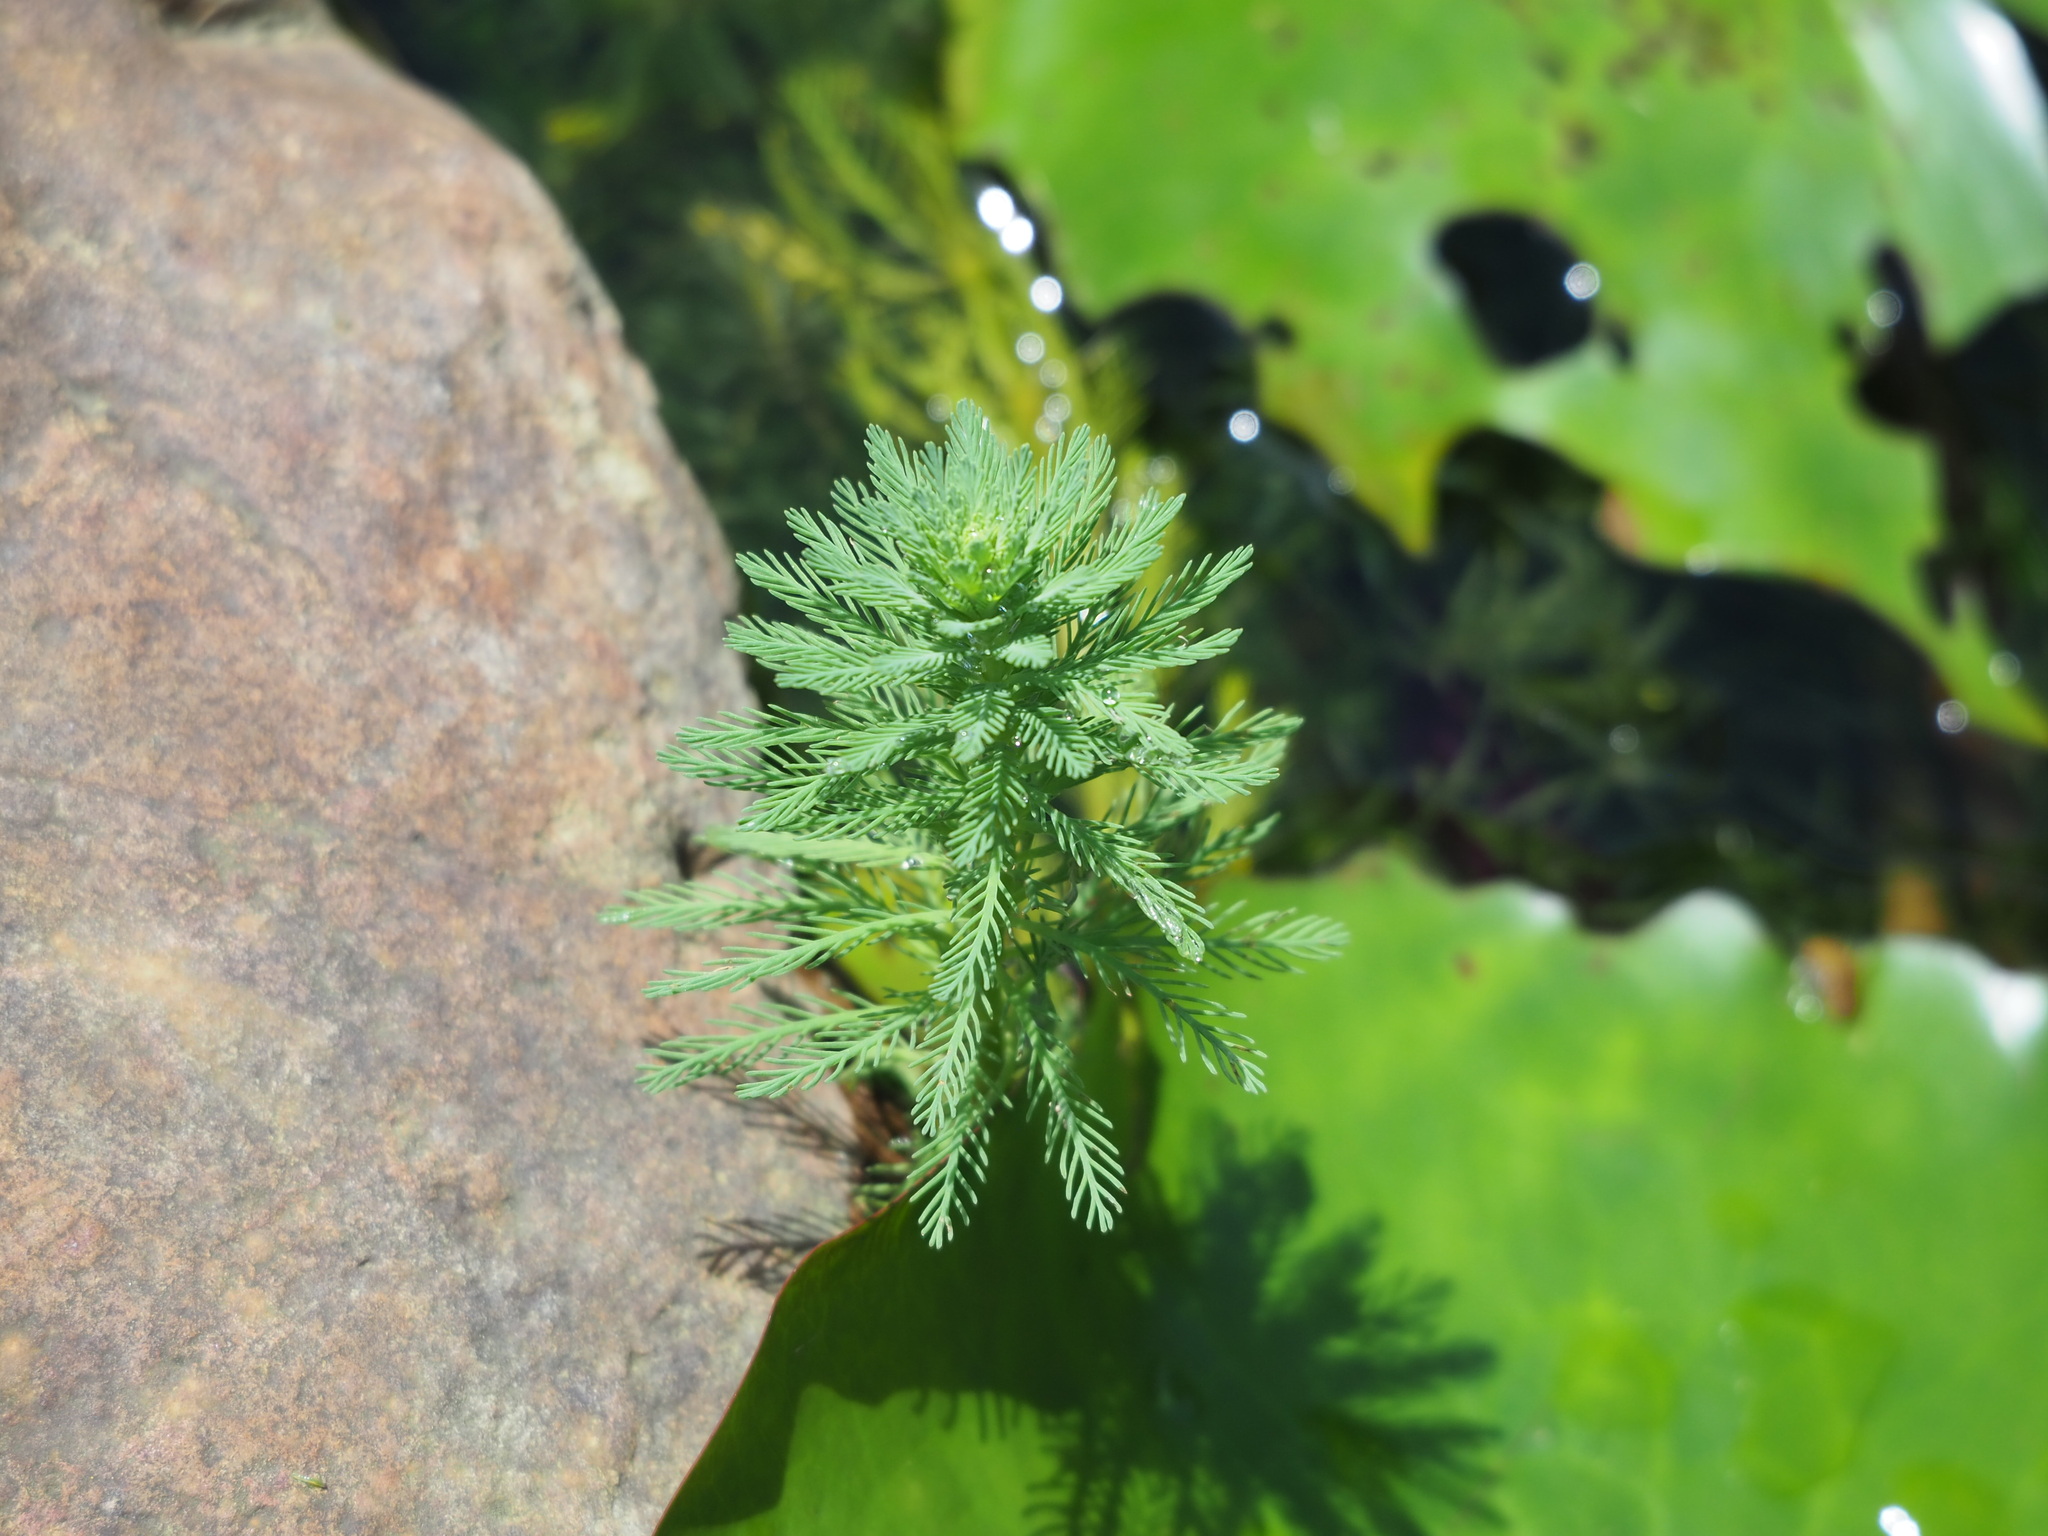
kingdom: Plantae
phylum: Tracheophyta
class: Magnoliopsida
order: Saxifragales
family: Haloragaceae
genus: Myriophyllum
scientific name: Myriophyllum aquaticum
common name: Parrot's feather
